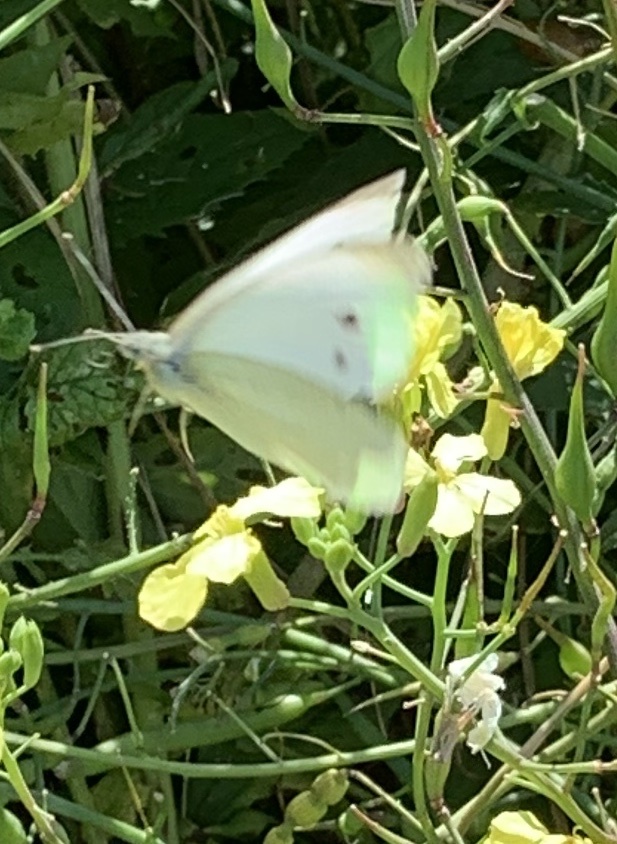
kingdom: Animalia
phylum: Arthropoda
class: Insecta
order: Lepidoptera
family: Pieridae
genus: Pieris
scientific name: Pieris rapae
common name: Small white
